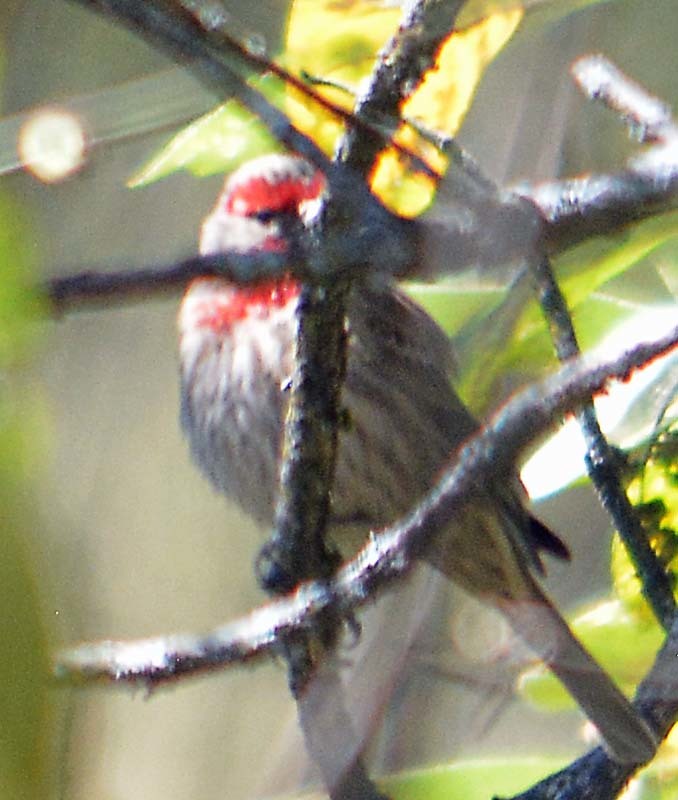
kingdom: Animalia
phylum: Chordata
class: Aves
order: Passeriformes
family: Fringillidae
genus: Haemorhous
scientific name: Haemorhous mexicanus
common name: House finch
